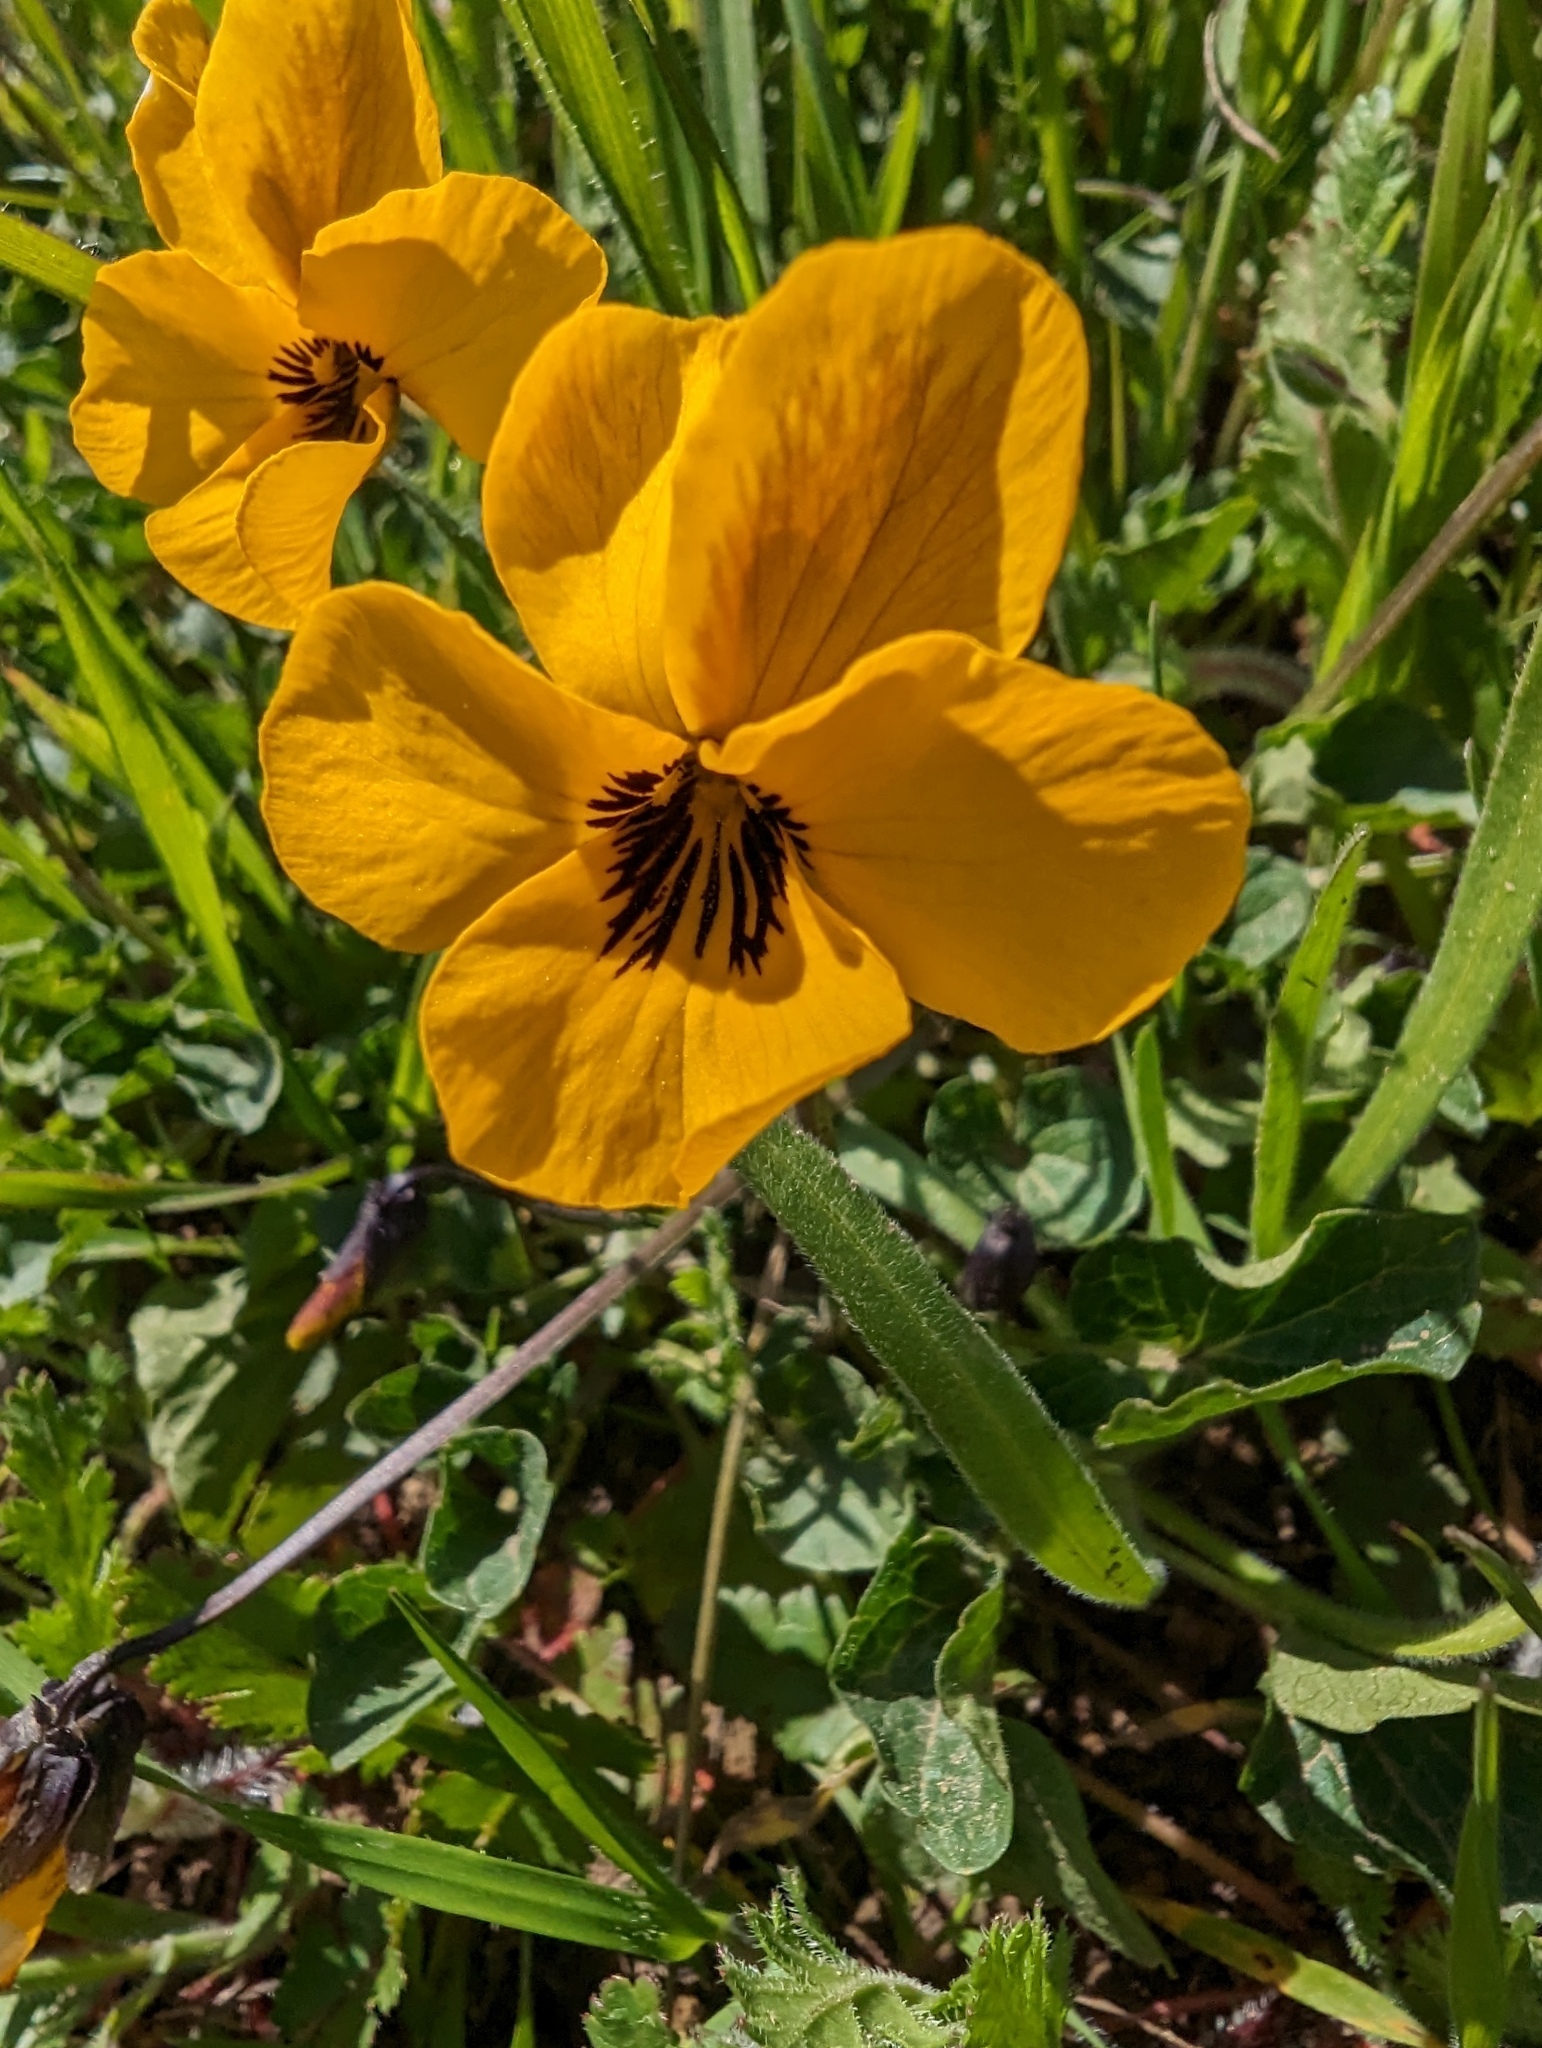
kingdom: Plantae
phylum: Tracheophyta
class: Magnoliopsida
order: Malpighiales
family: Violaceae
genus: Viola
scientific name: Viola pedunculata
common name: California golden violet
